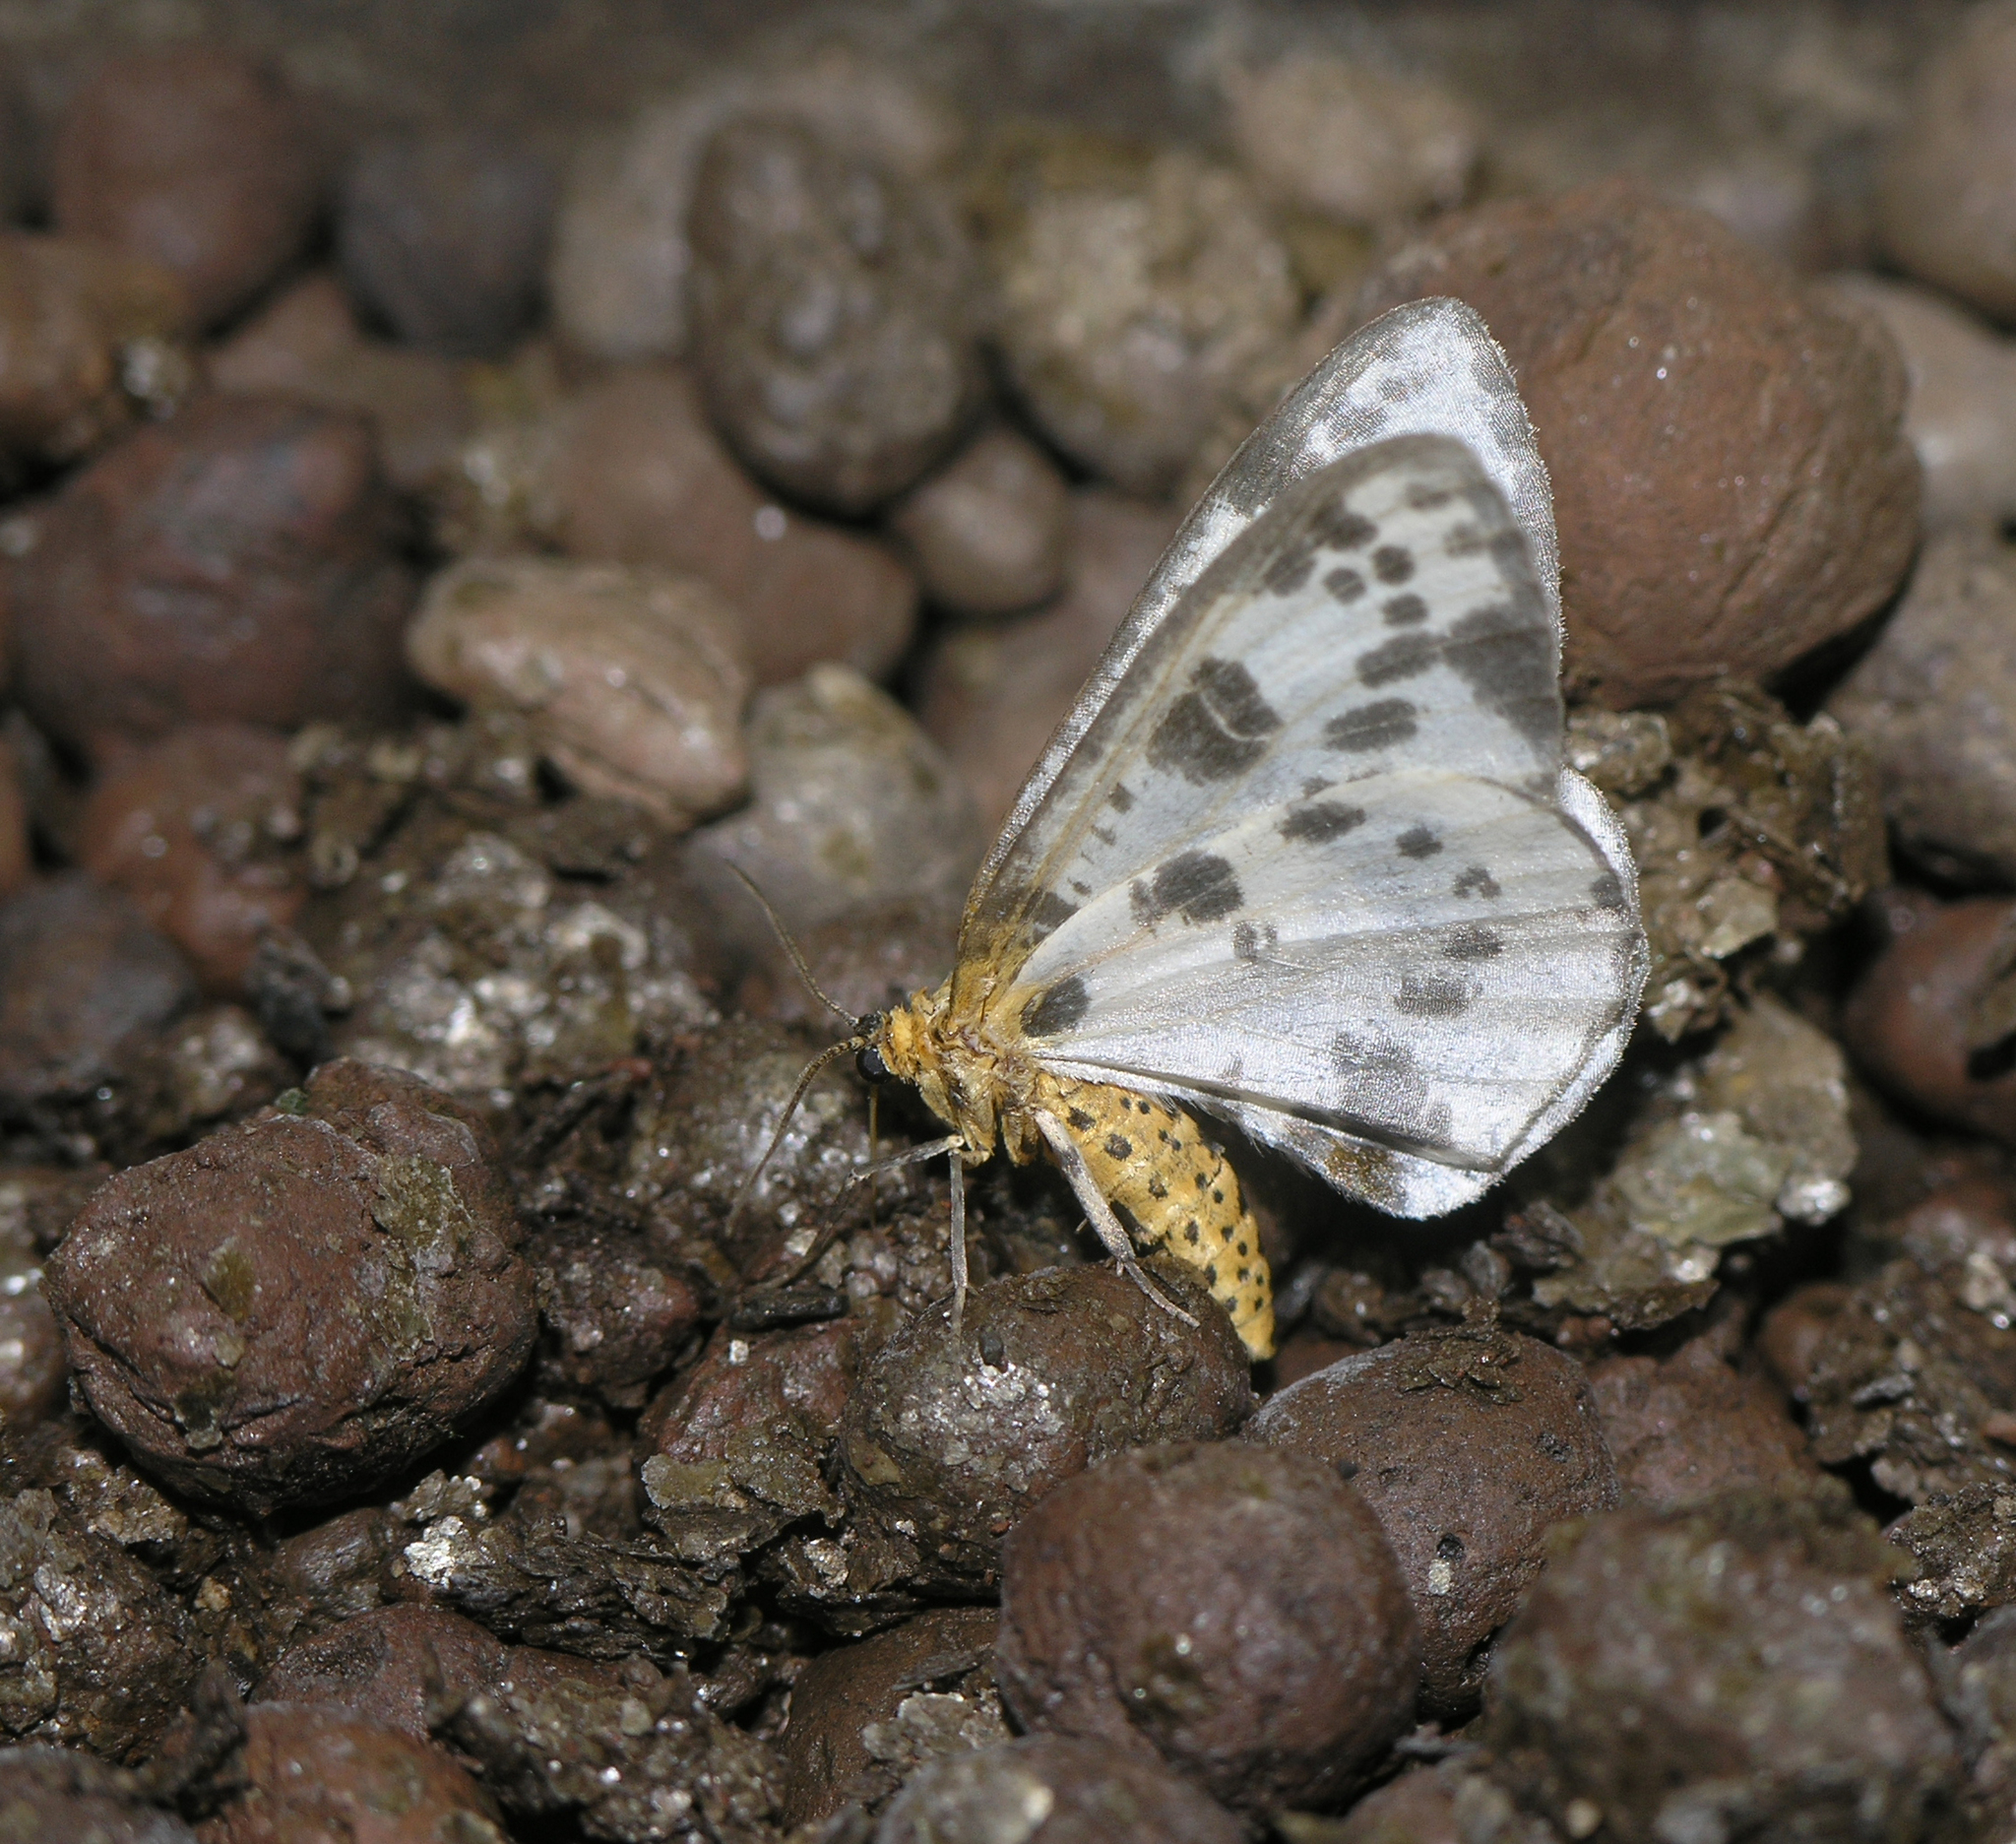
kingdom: Animalia
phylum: Arthropoda
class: Insecta
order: Lepidoptera
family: Geometridae
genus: Abraxas
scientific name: Abraxas grossulariata
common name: Magpie
